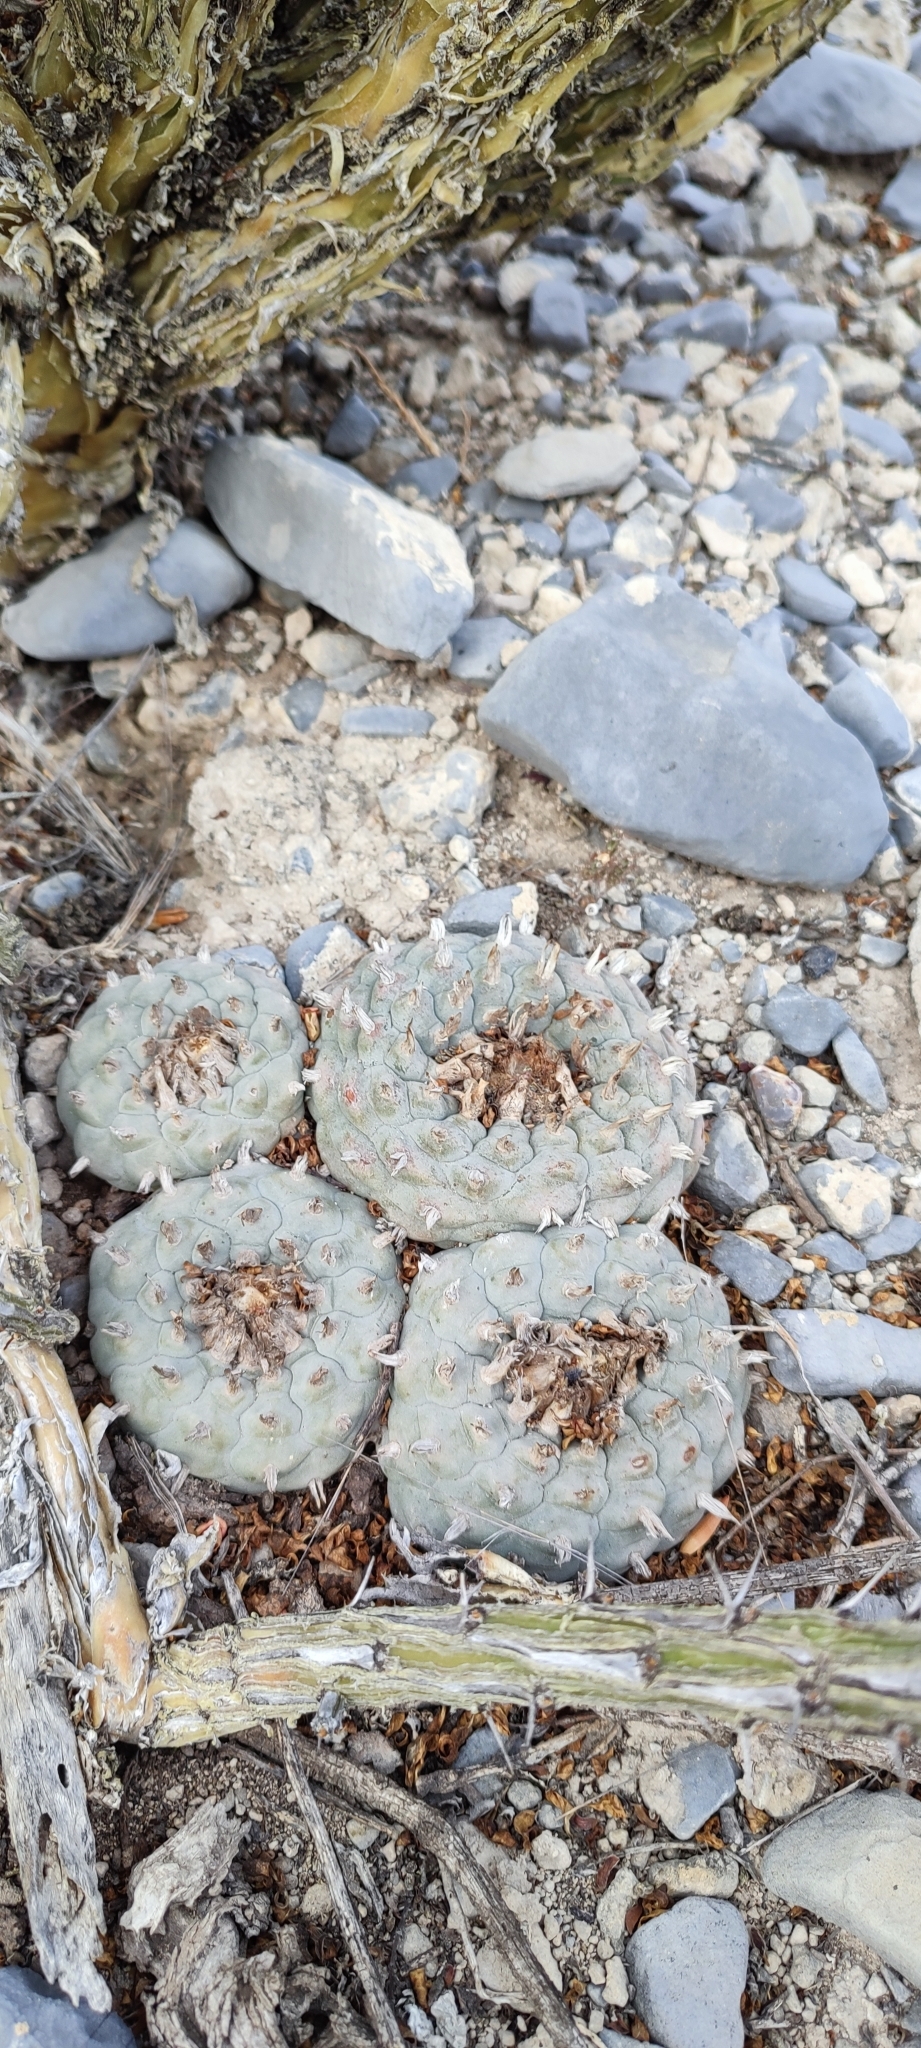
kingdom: Plantae
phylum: Tracheophyta
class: Magnoliopsida
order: Caryophyllales
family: Cactaceae
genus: Lophophora
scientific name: Lophophora williamsii
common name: Indian-dope
